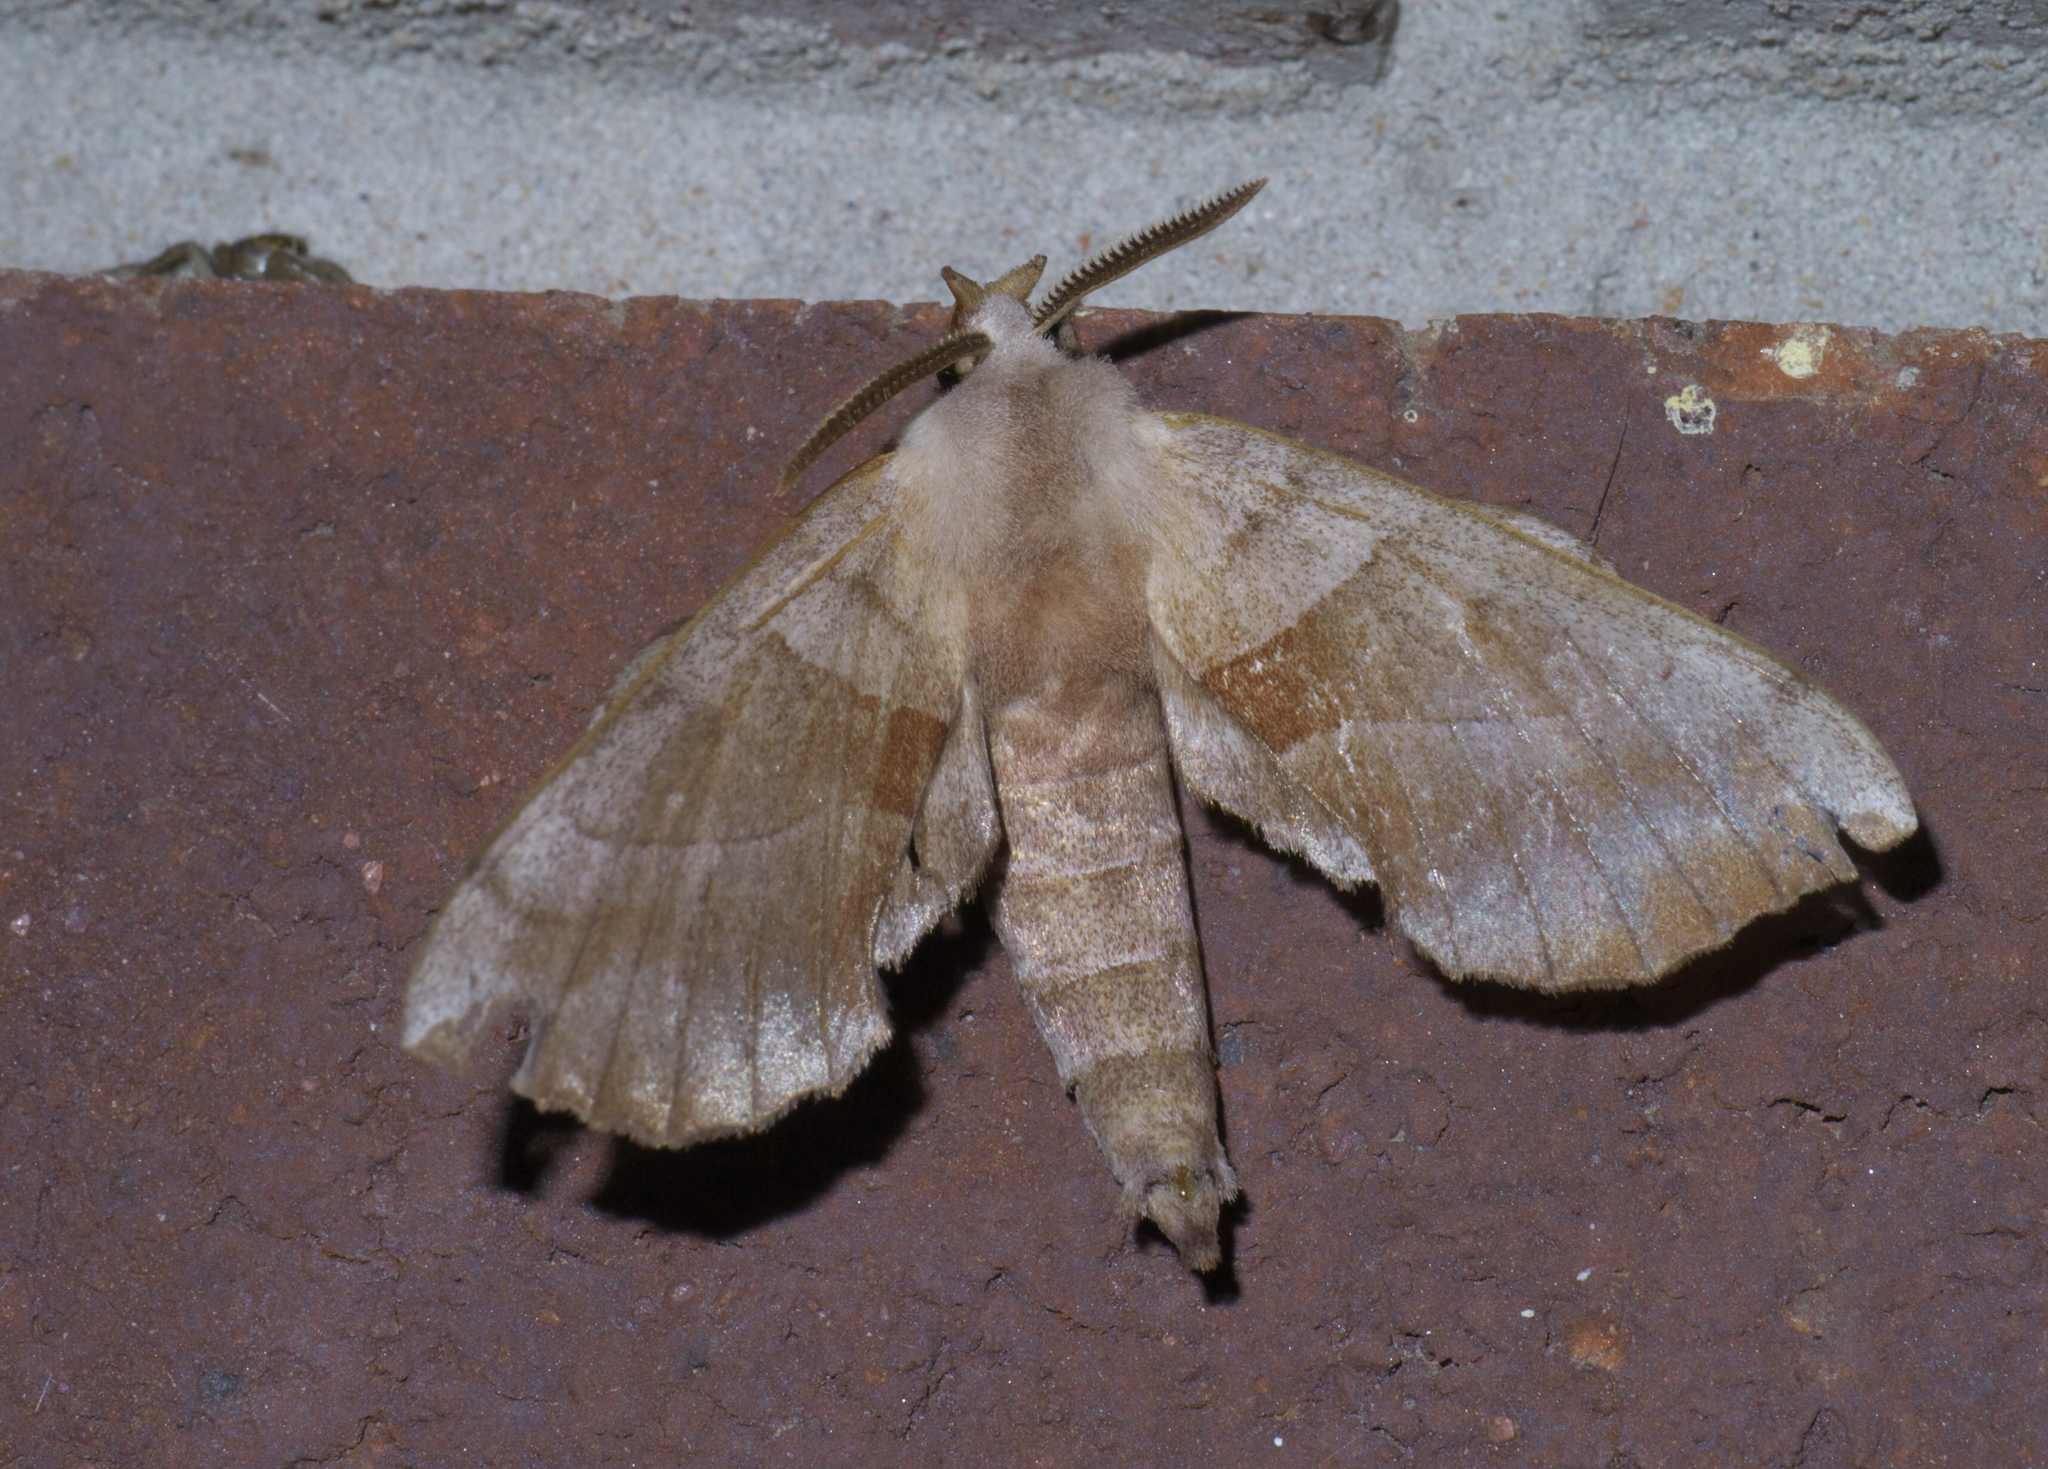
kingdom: Animalia
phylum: Arthropoda
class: Insecta
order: Lepidoptera
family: Sphingidae
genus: Amorpha
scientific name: Amorpha juglandis
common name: Walnut sphinx
